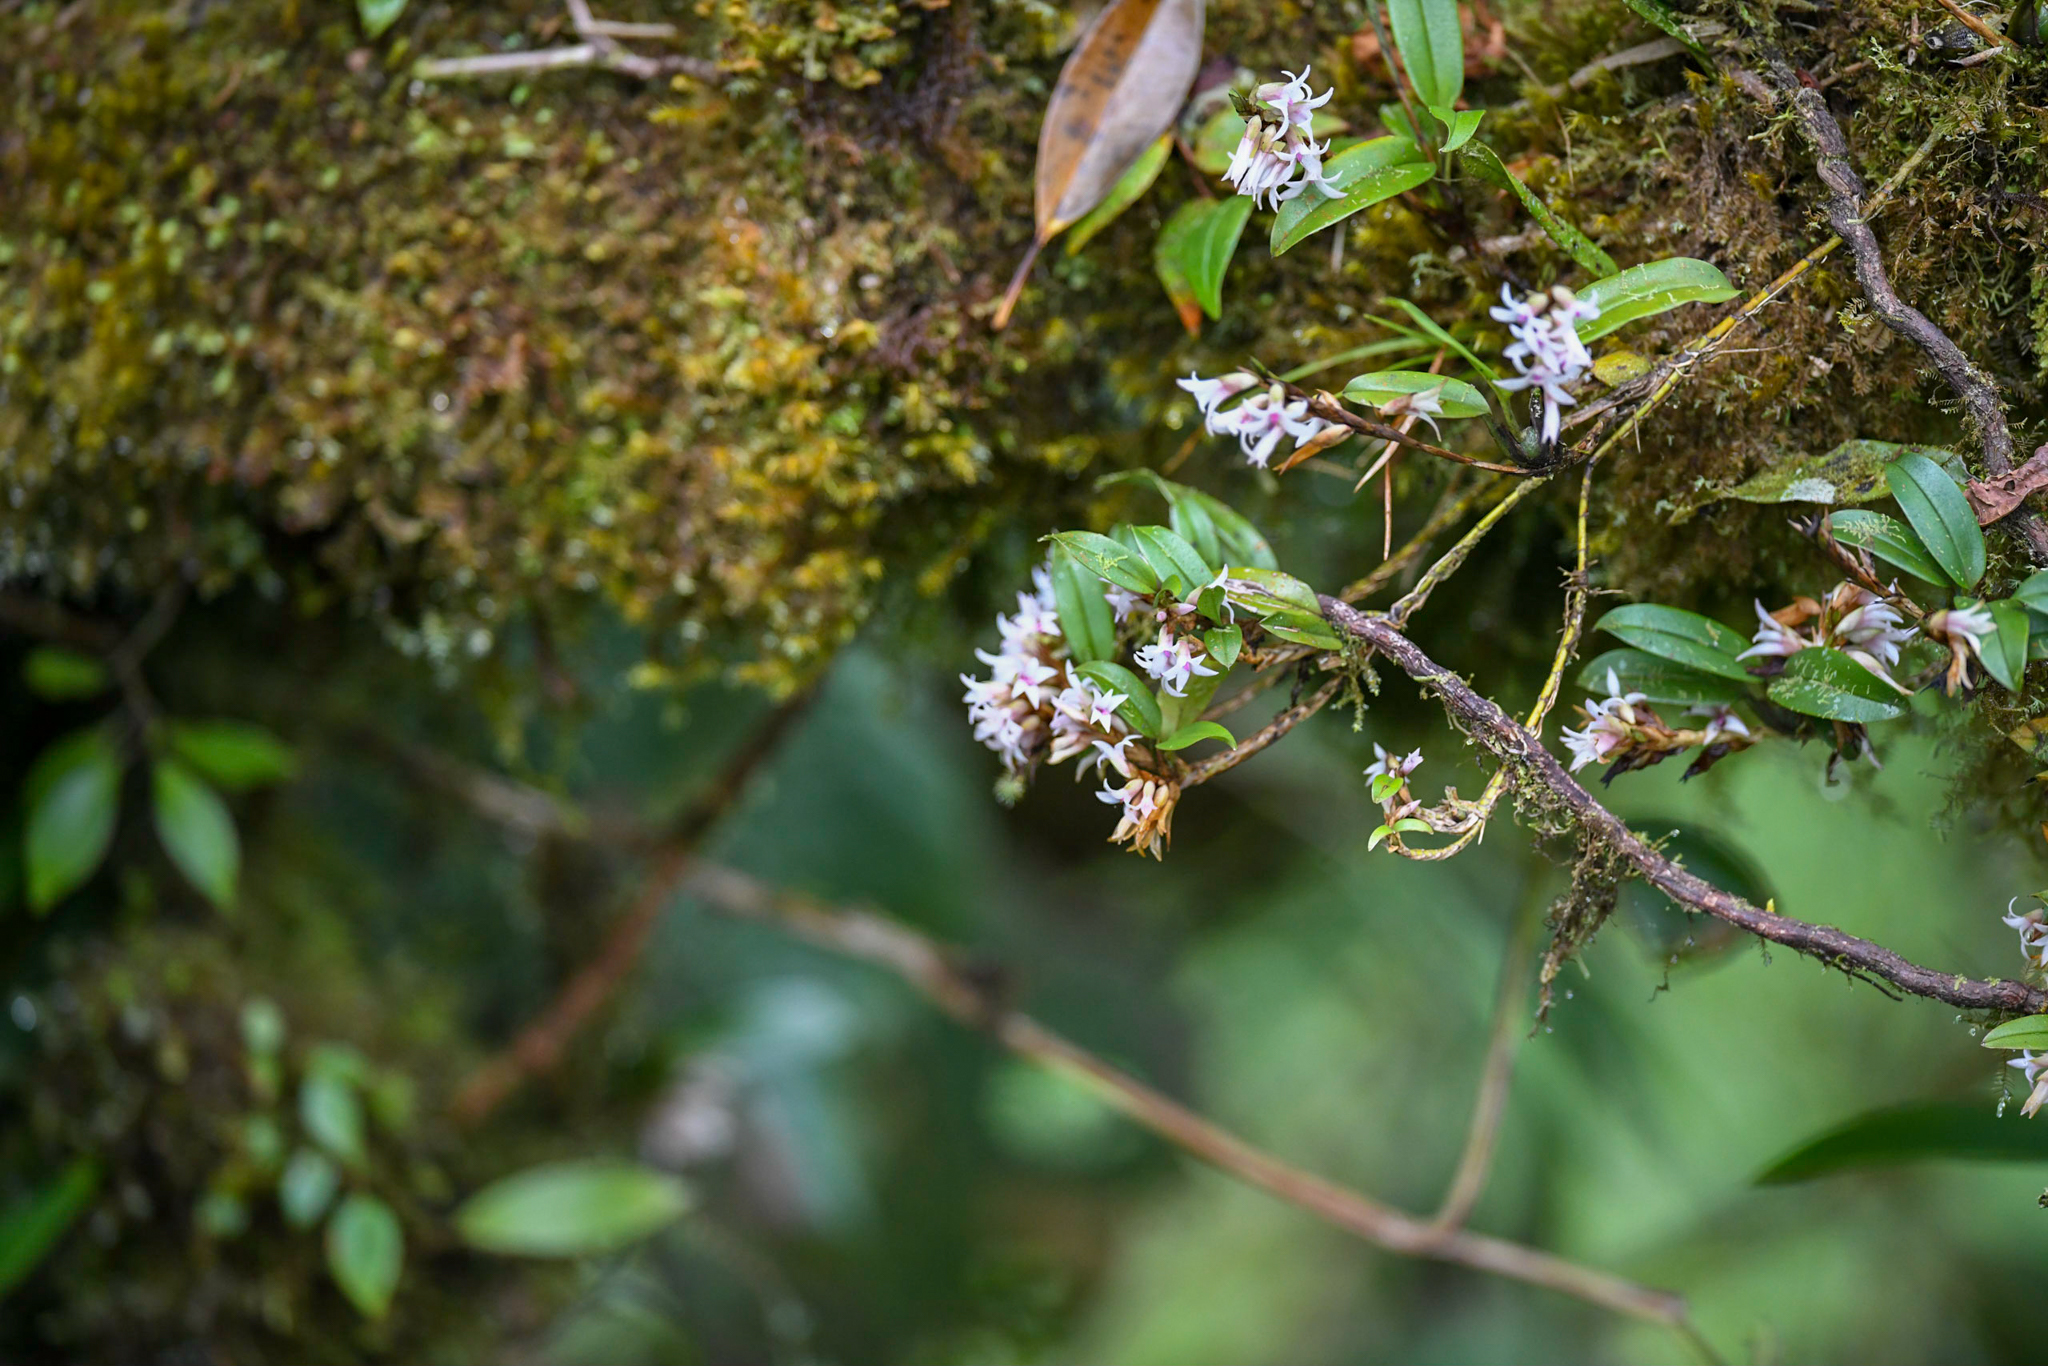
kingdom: Plantae
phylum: Tracheophyta
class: Liliopsida
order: Asparagales
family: Orchidaceae
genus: Maxillaria
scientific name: Maxillaria schlechteriana
